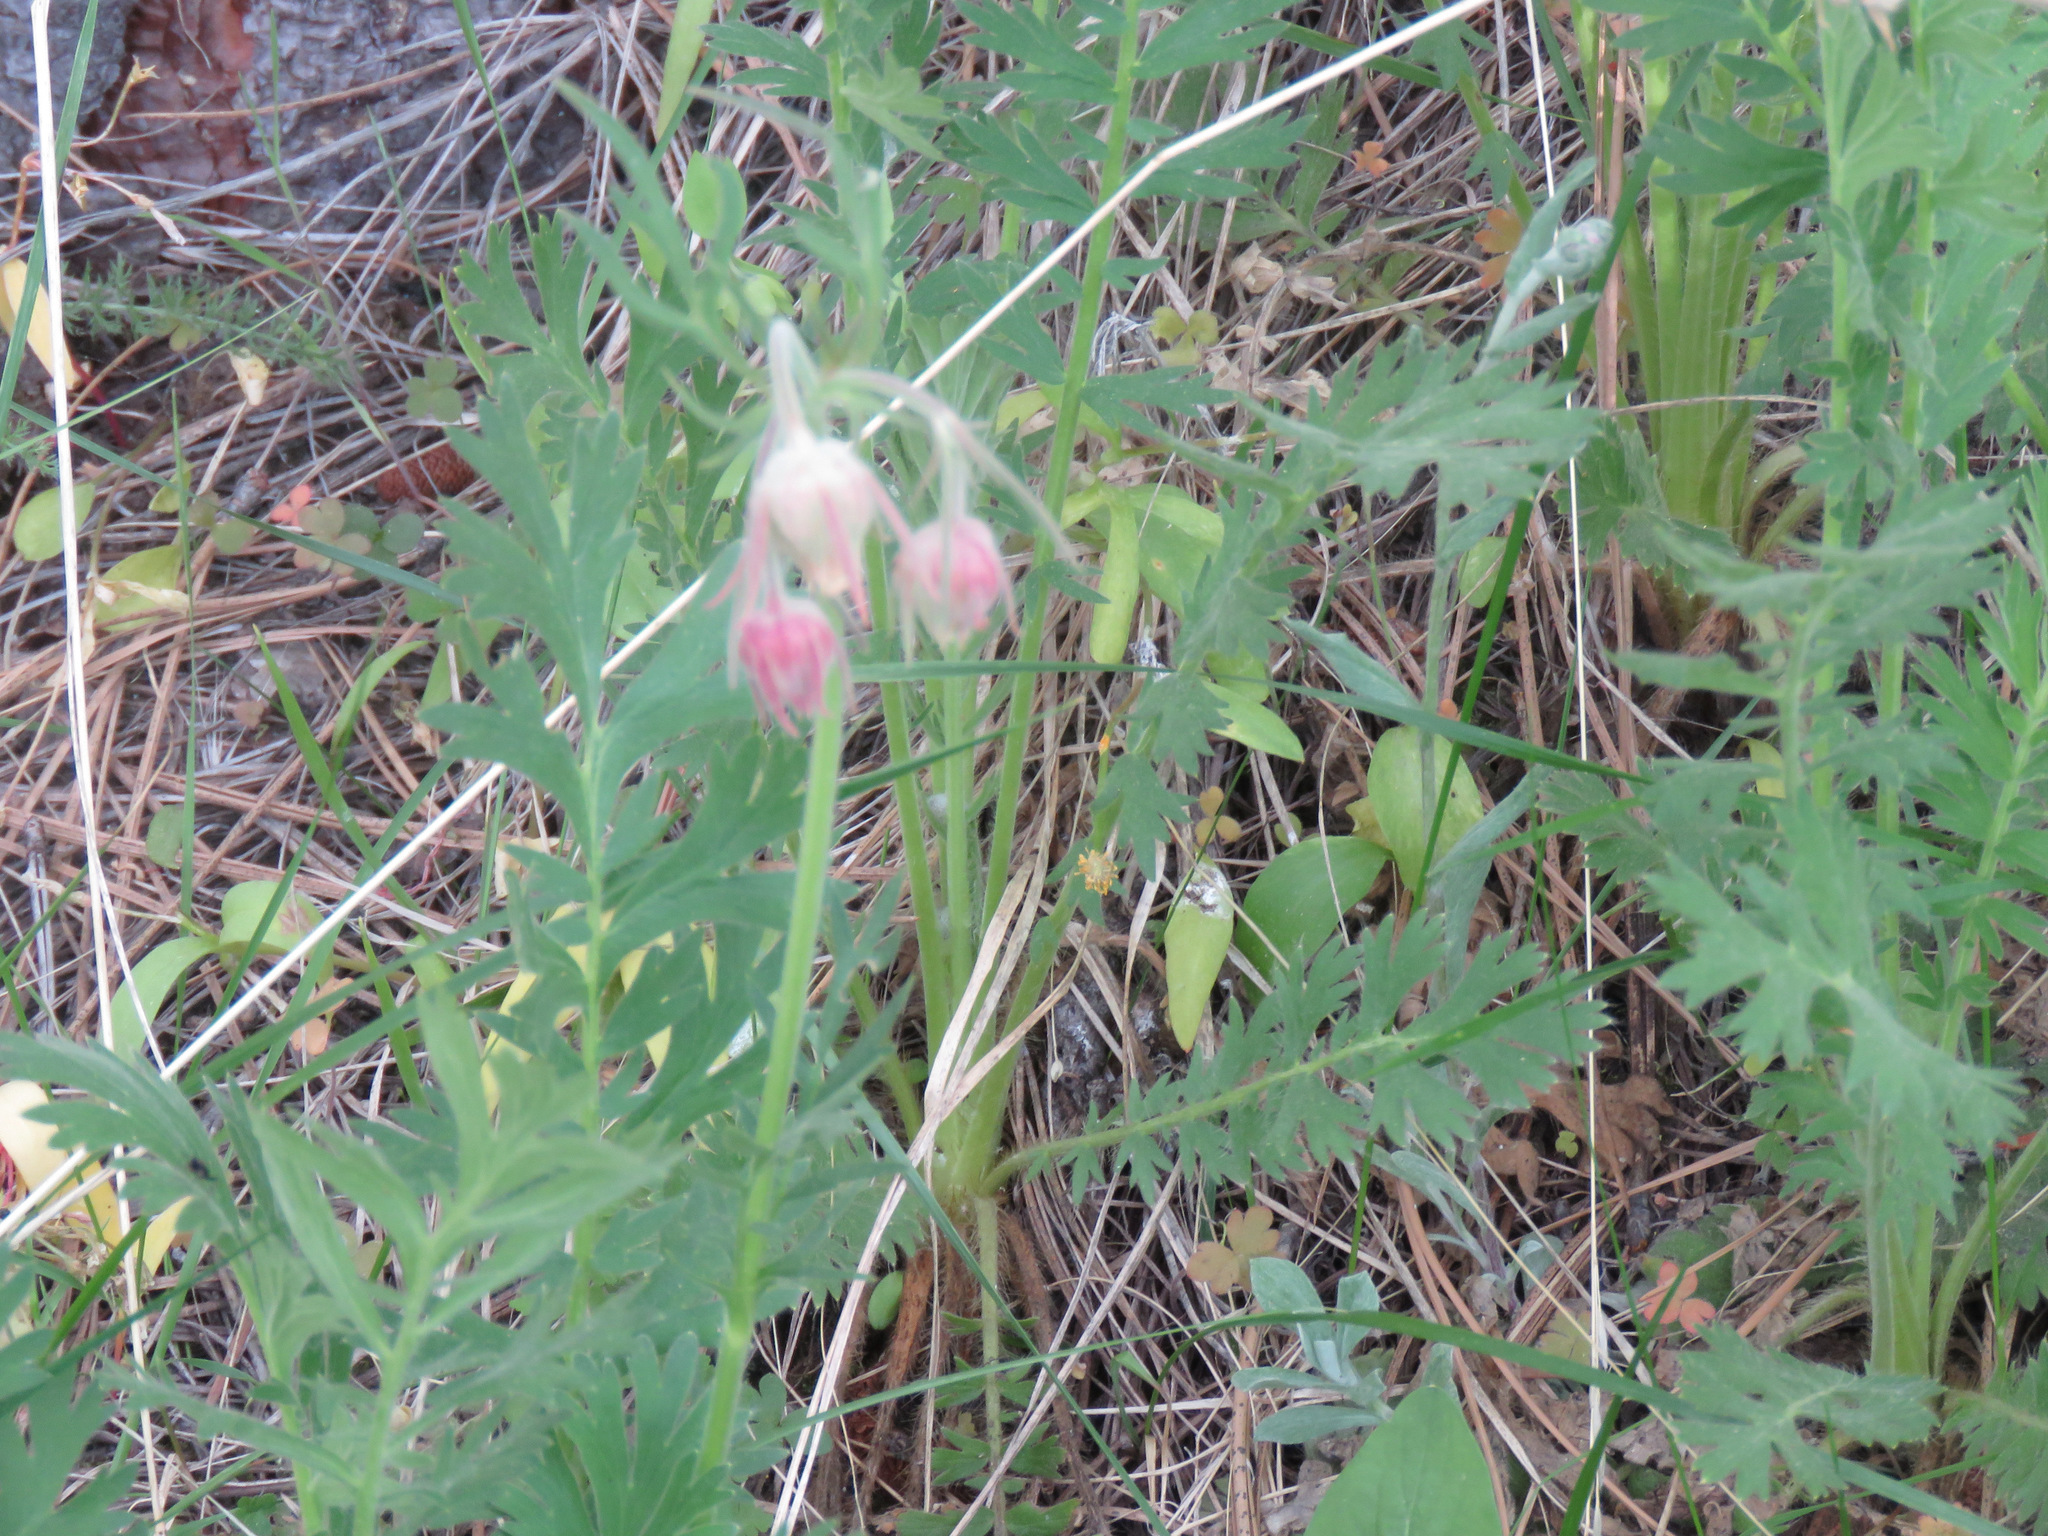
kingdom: Plantae
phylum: Tracheophyta
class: Magnoliopsida
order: Rosales
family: Rosaceae
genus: Geum
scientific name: Geum triflorum
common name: Old man's whiskers
